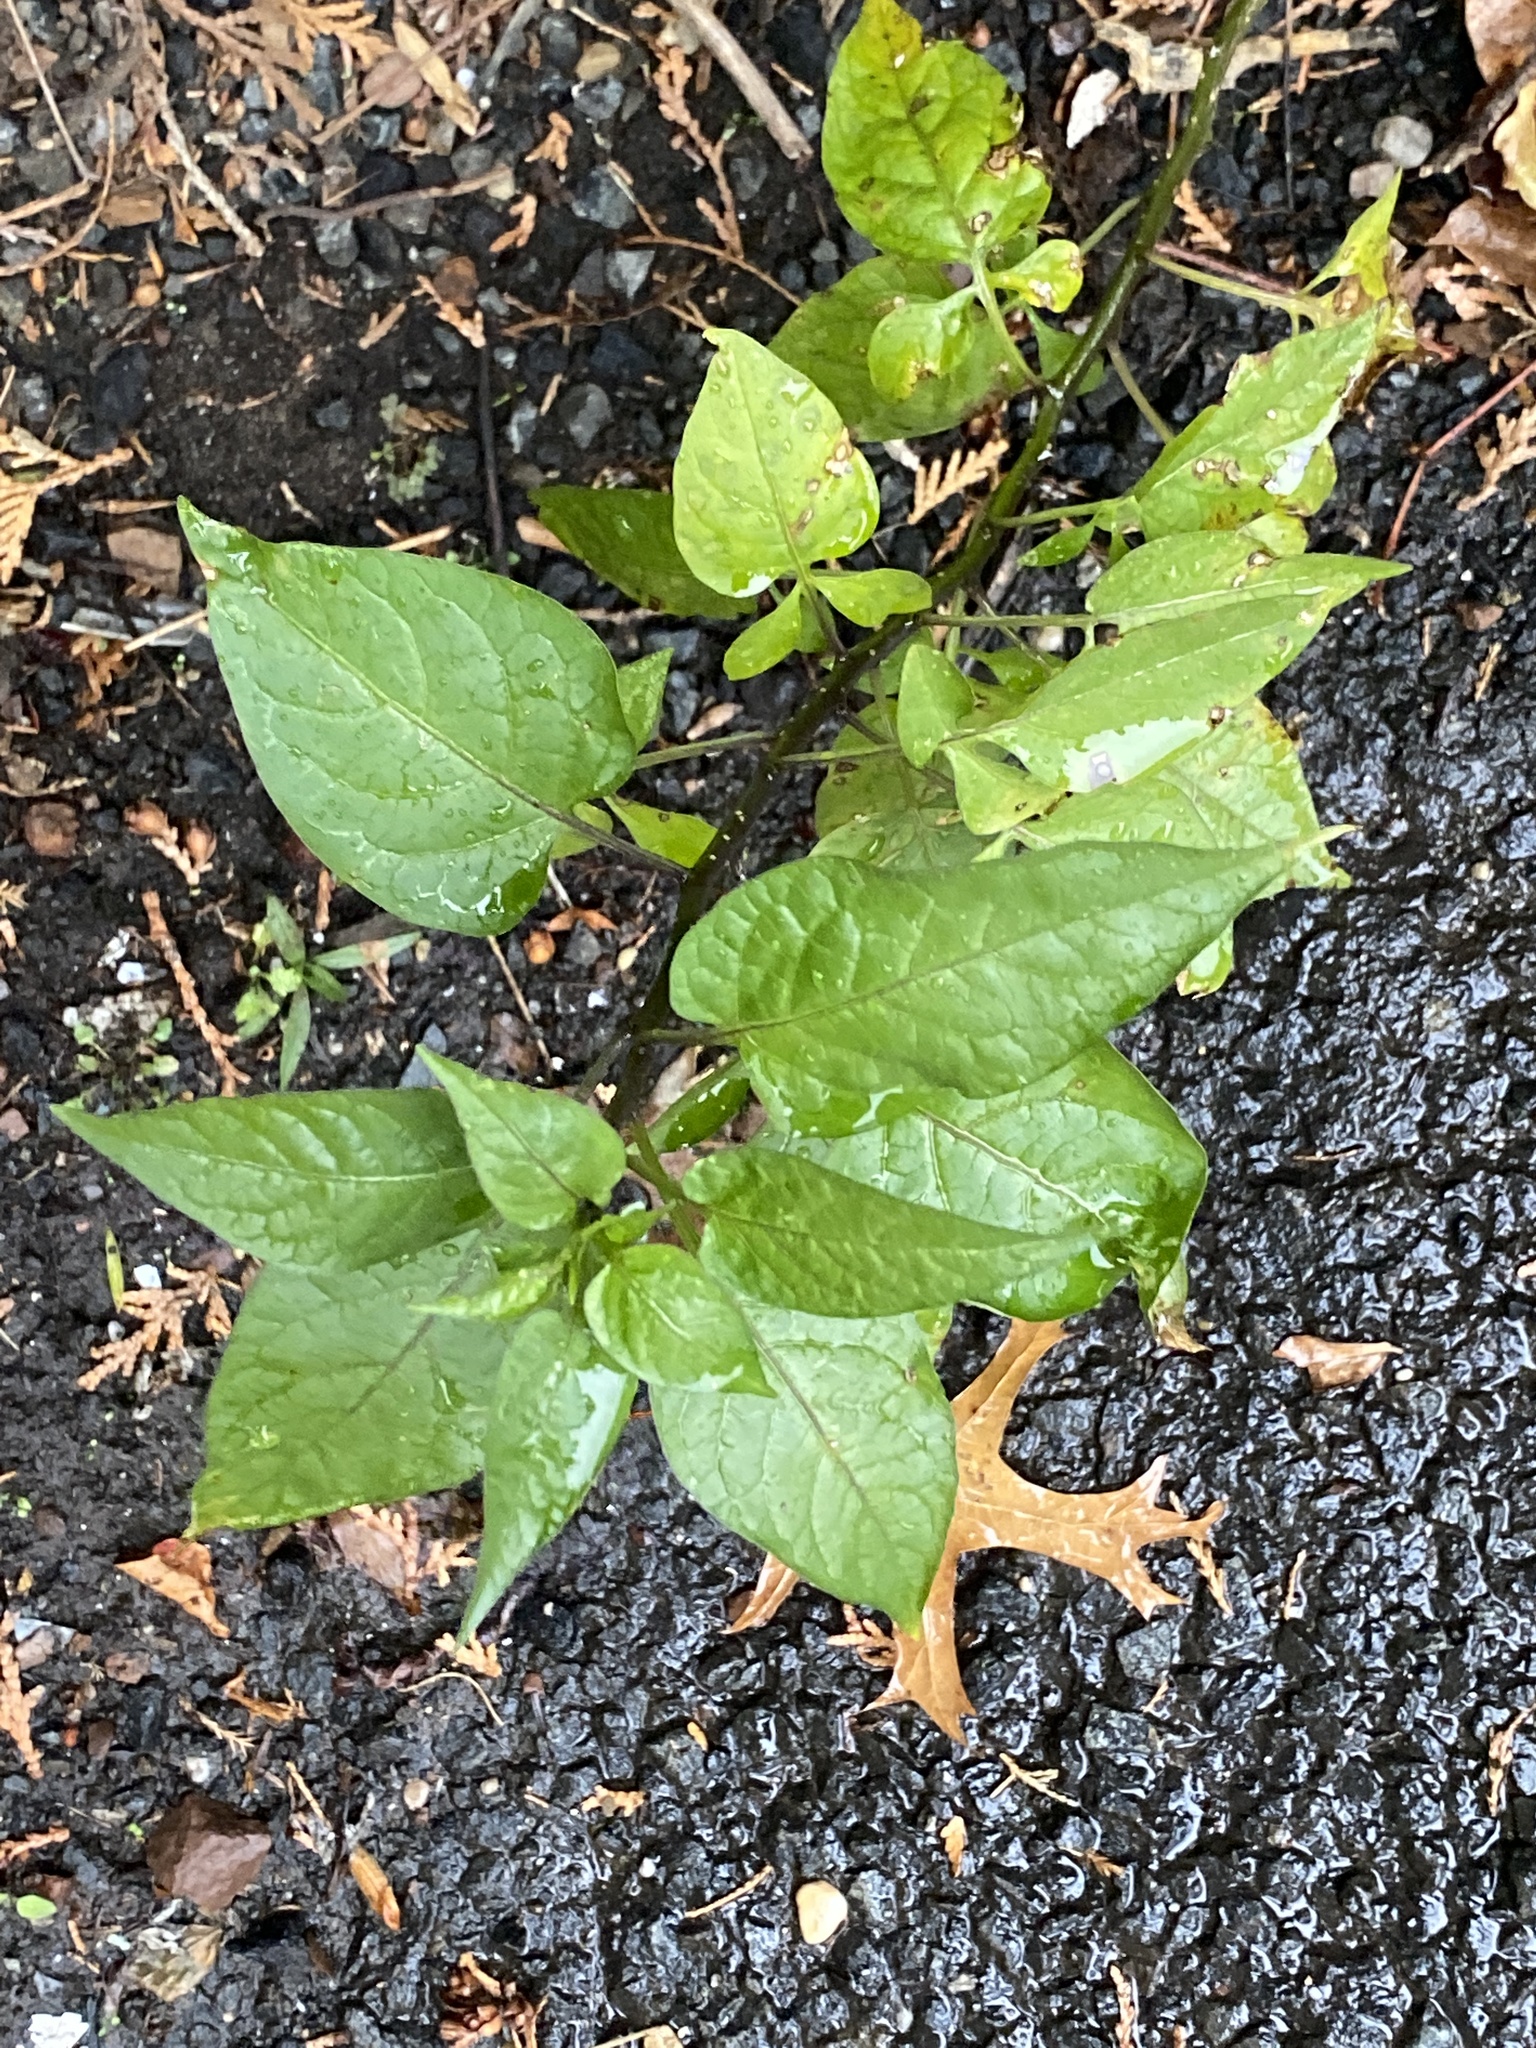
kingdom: Plantae
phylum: Tracheophyta
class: Magnoliopsida
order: Solanales
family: Solanaceae
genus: Solanum
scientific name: Solanum dulcamara
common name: Climbing nightshade
